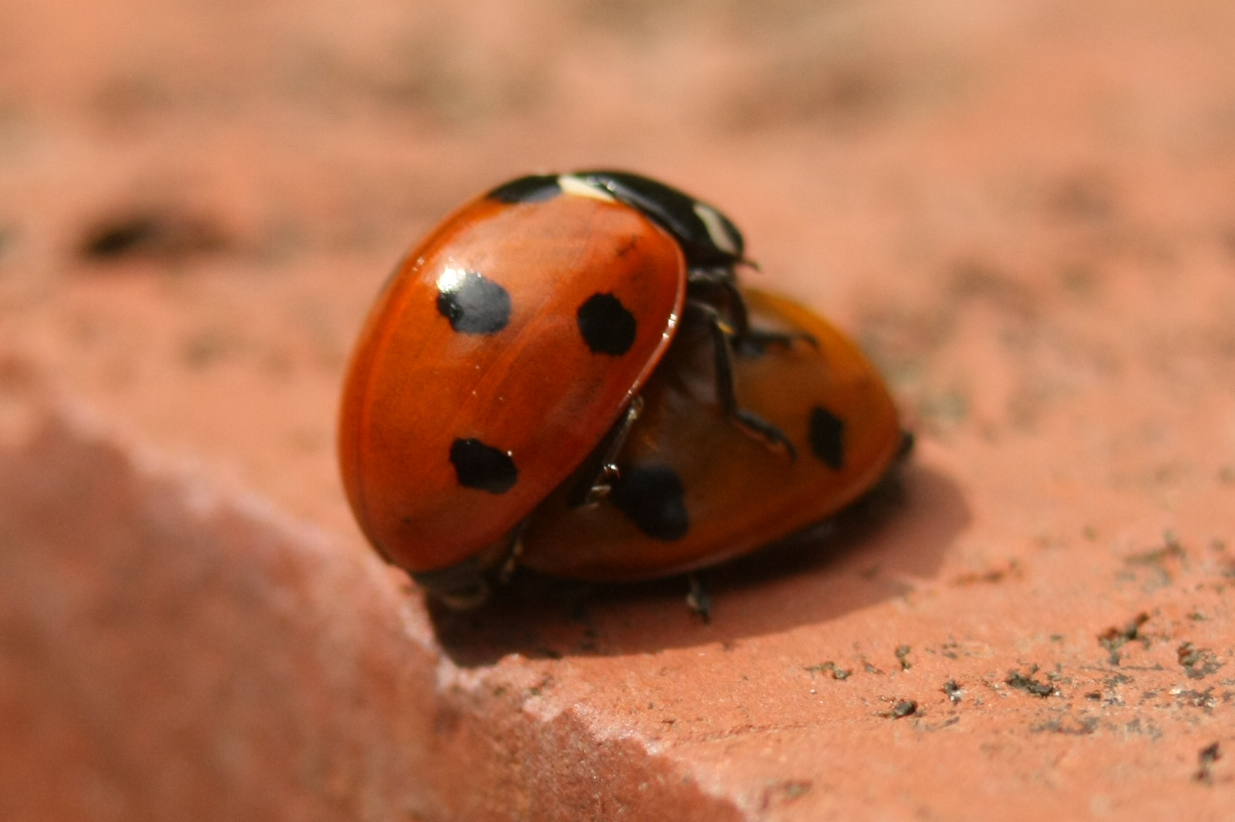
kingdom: Animalia
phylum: Arthropoda
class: Insecta
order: Coleoptera
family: Coccinellidae
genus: Coccinella
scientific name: Coccinella septempunctata
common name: Sevenspotted lady beetle
